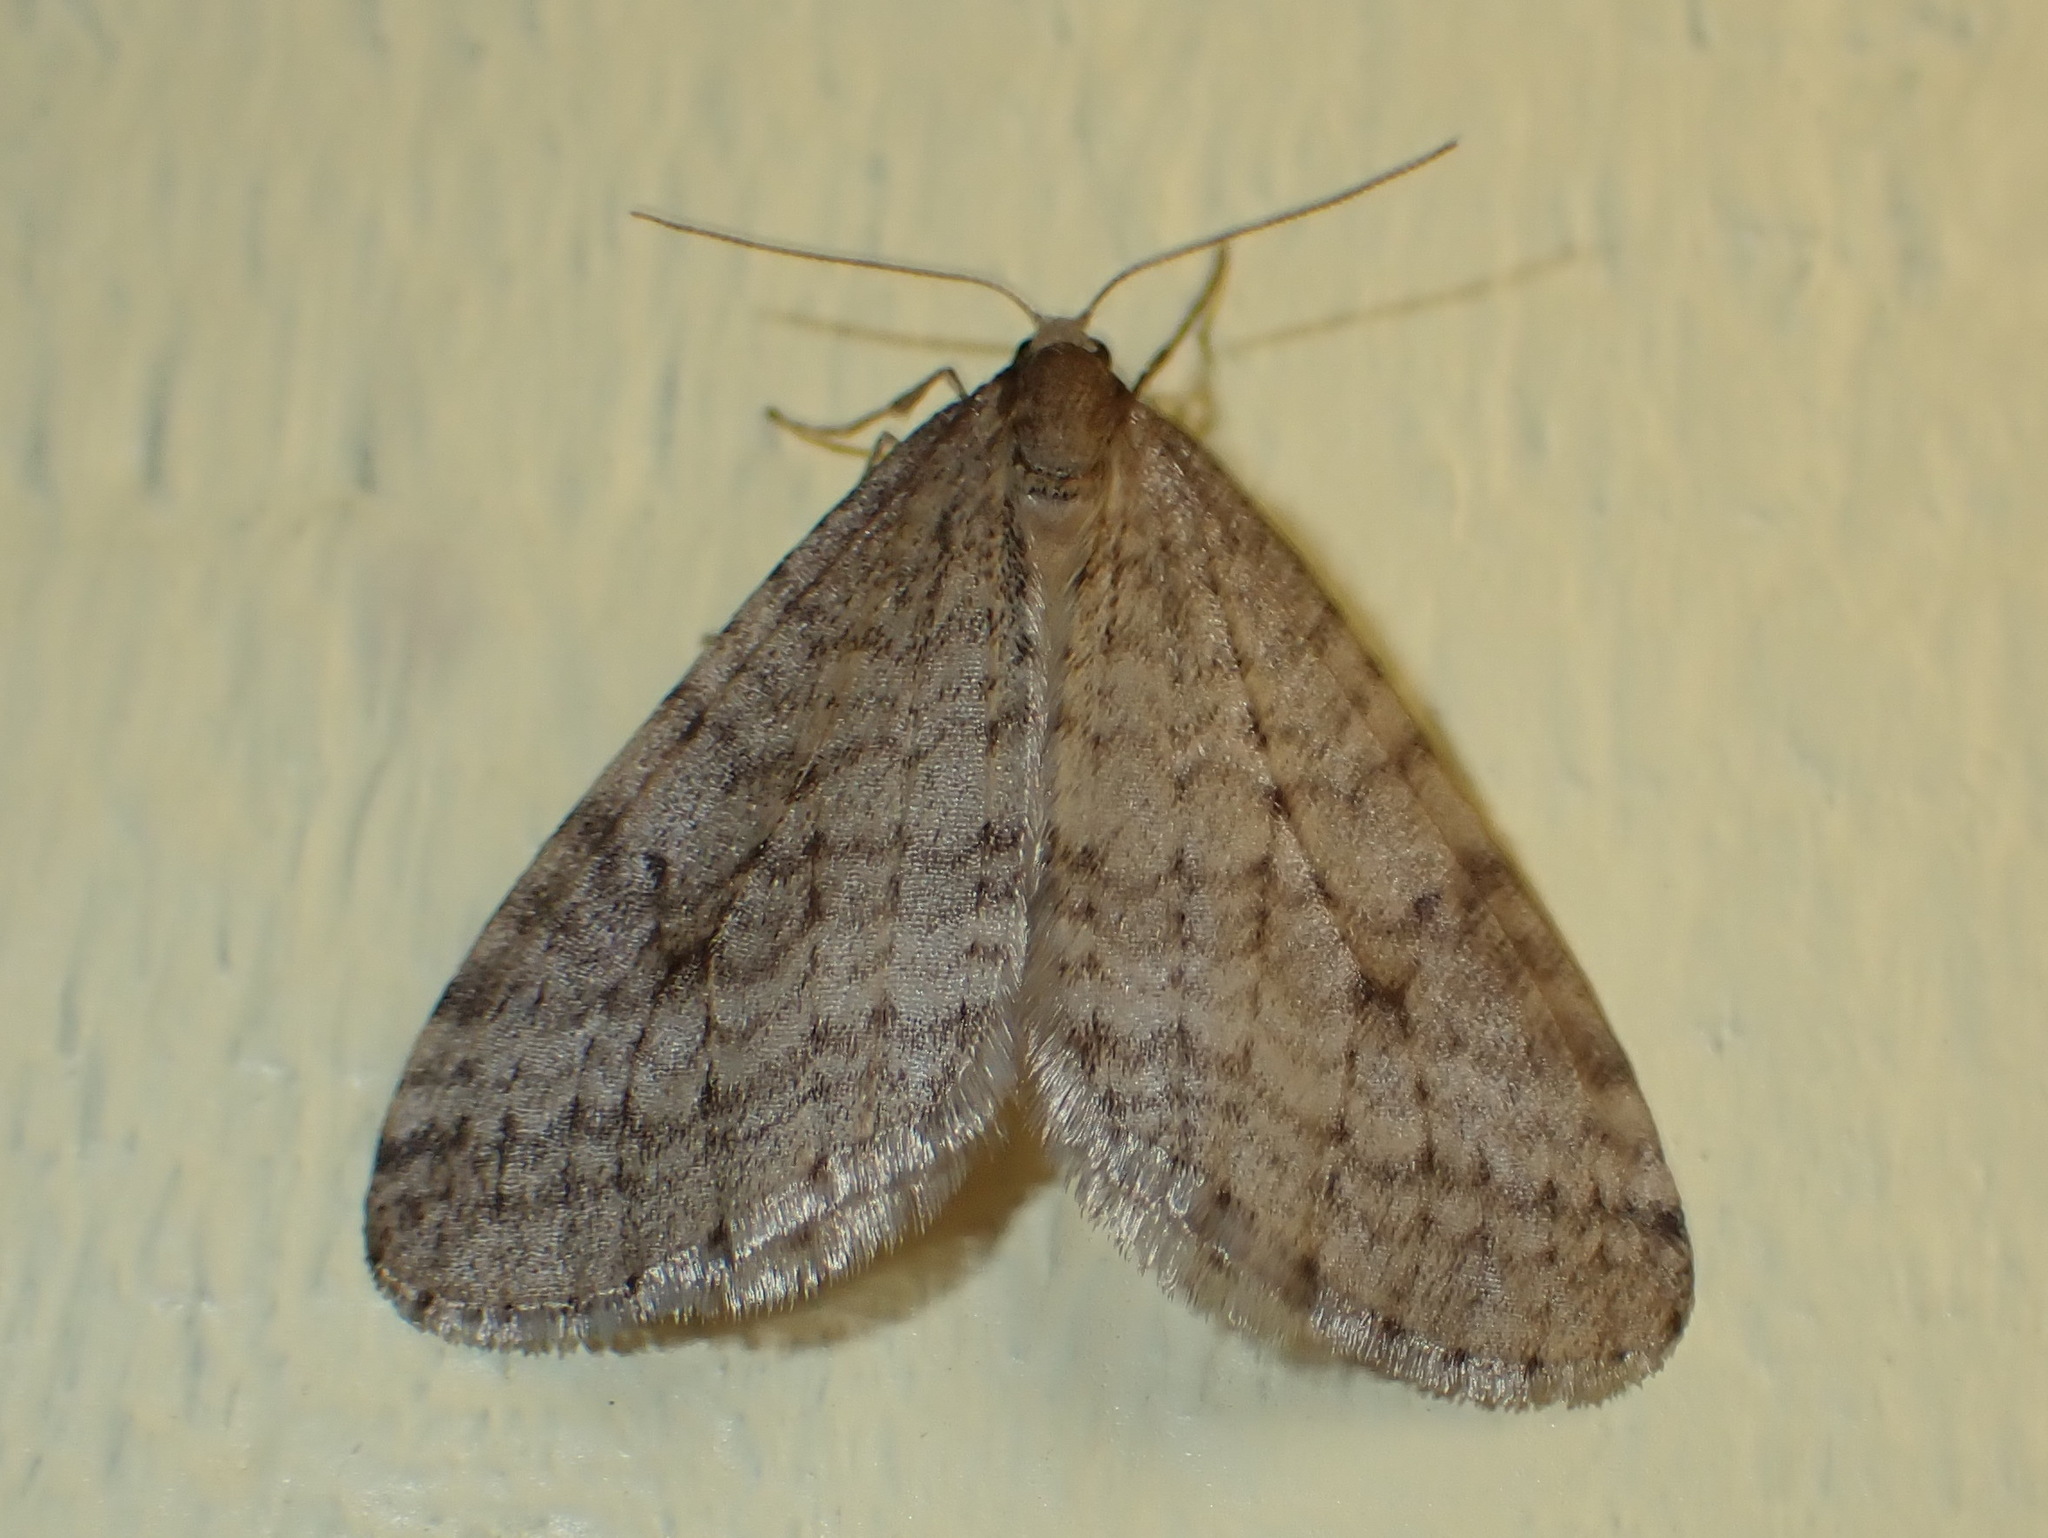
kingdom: Animalia
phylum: Arthropoda
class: Insecta
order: Lepidoptera
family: Geometridae
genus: Operophtera
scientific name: Operophtera bruceata
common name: Bruce spanworm
